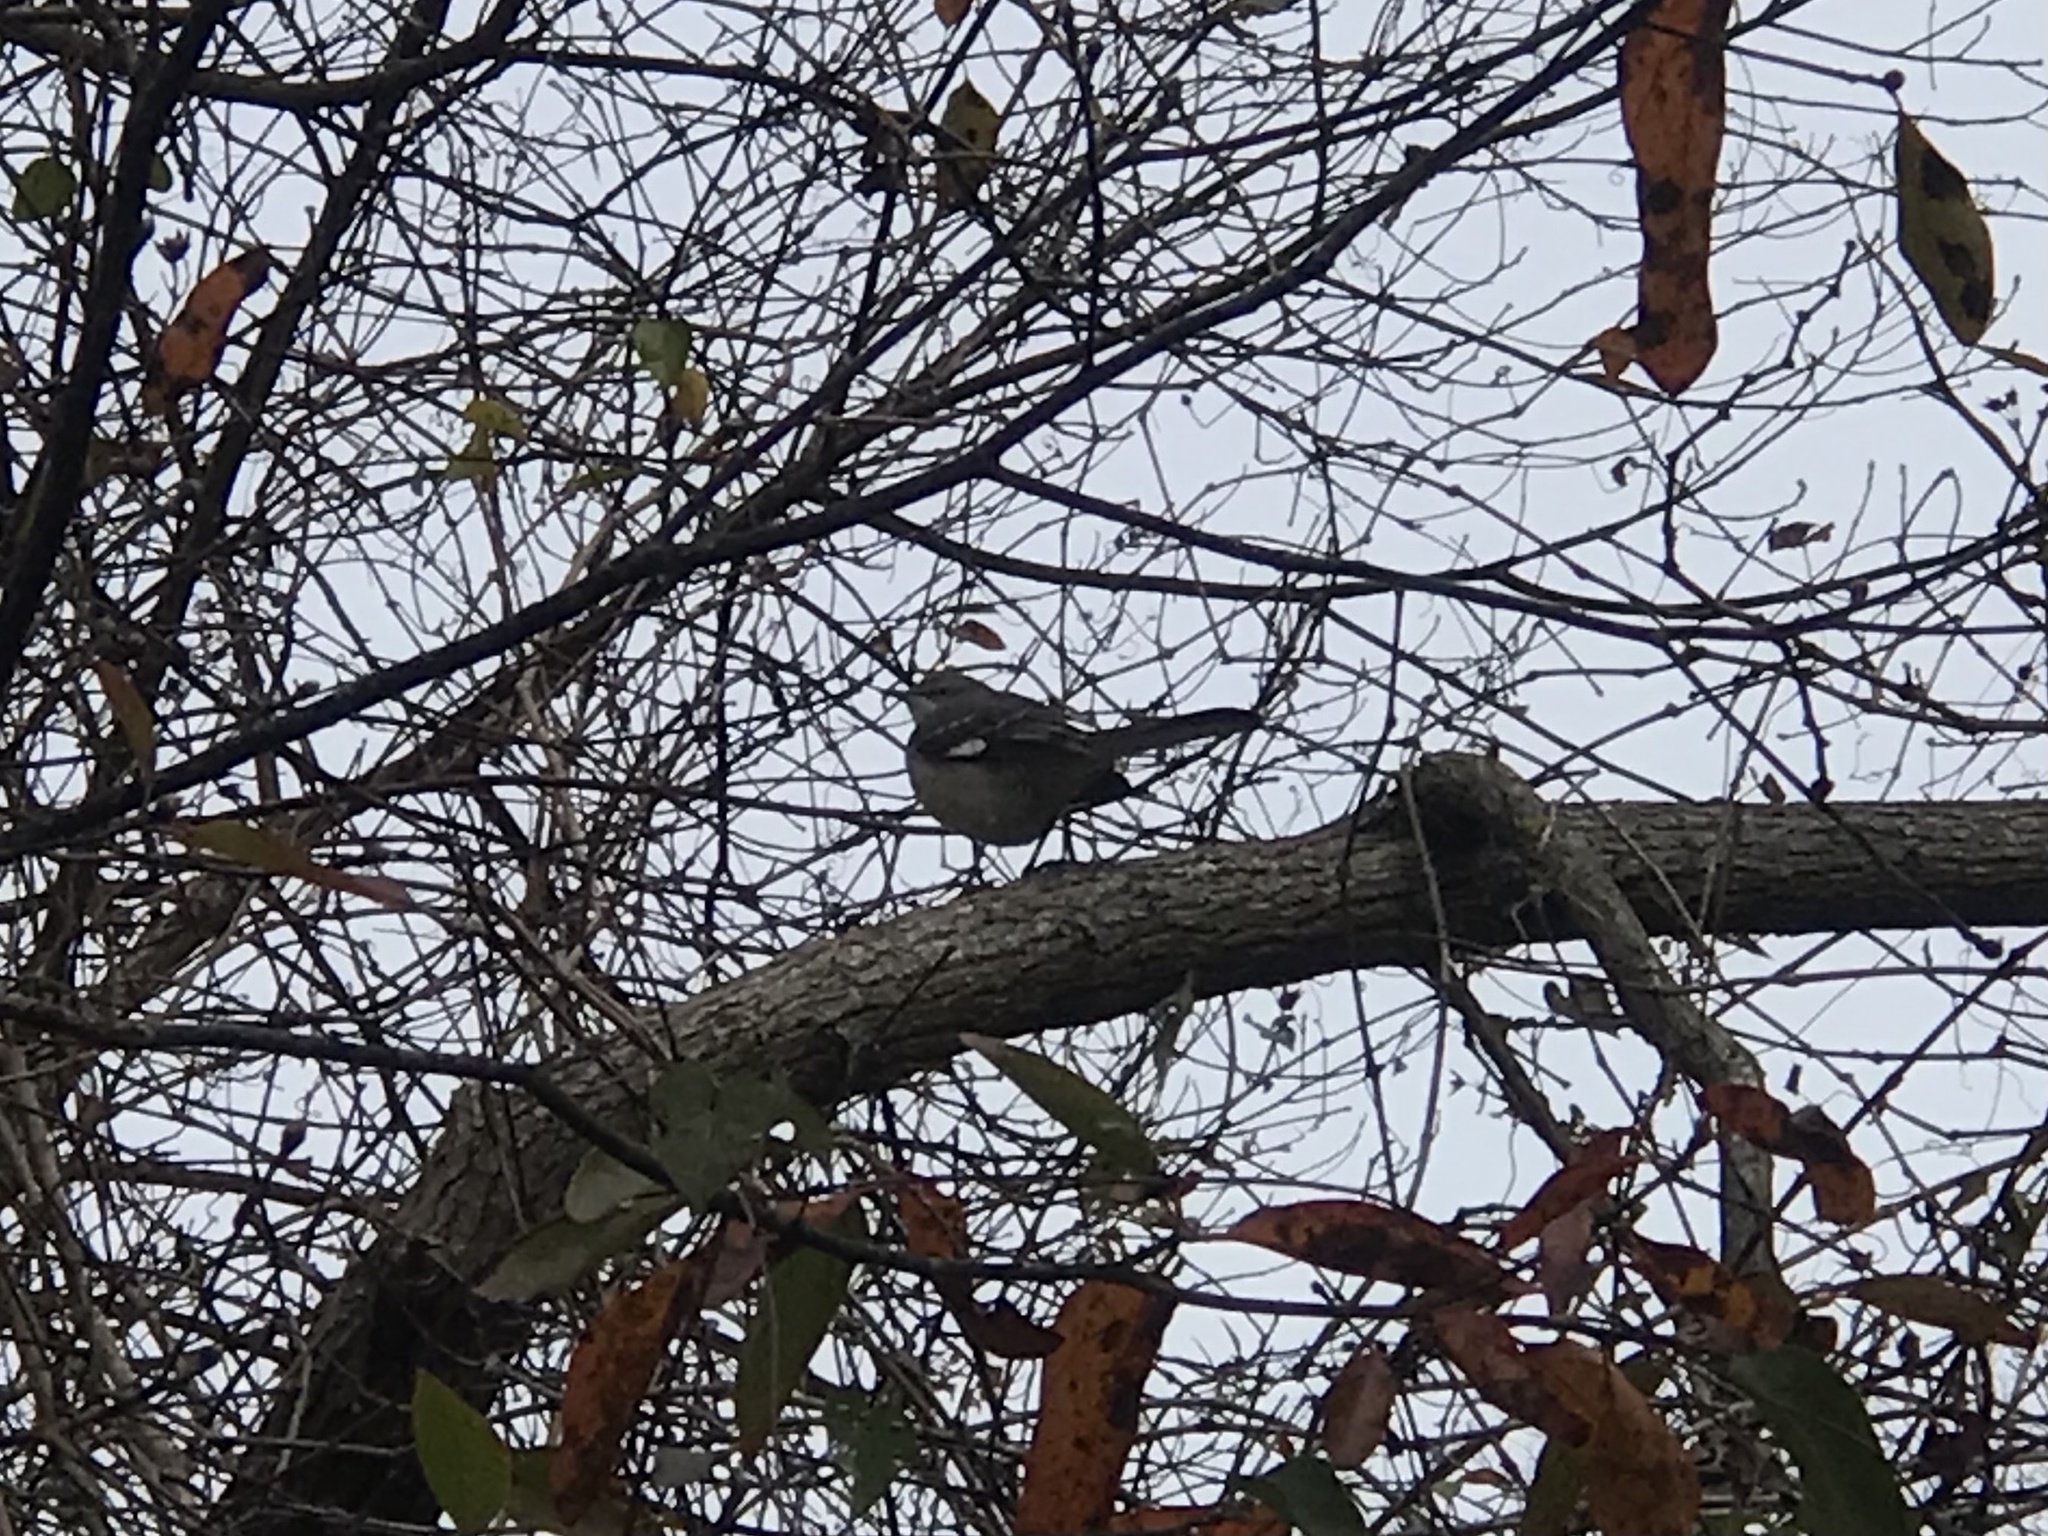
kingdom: Animalia
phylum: Chordata
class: Aves
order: Passeriformes
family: Mimidae
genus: Mimus
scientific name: Mimus polyglottos
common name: Northern mockingbird
